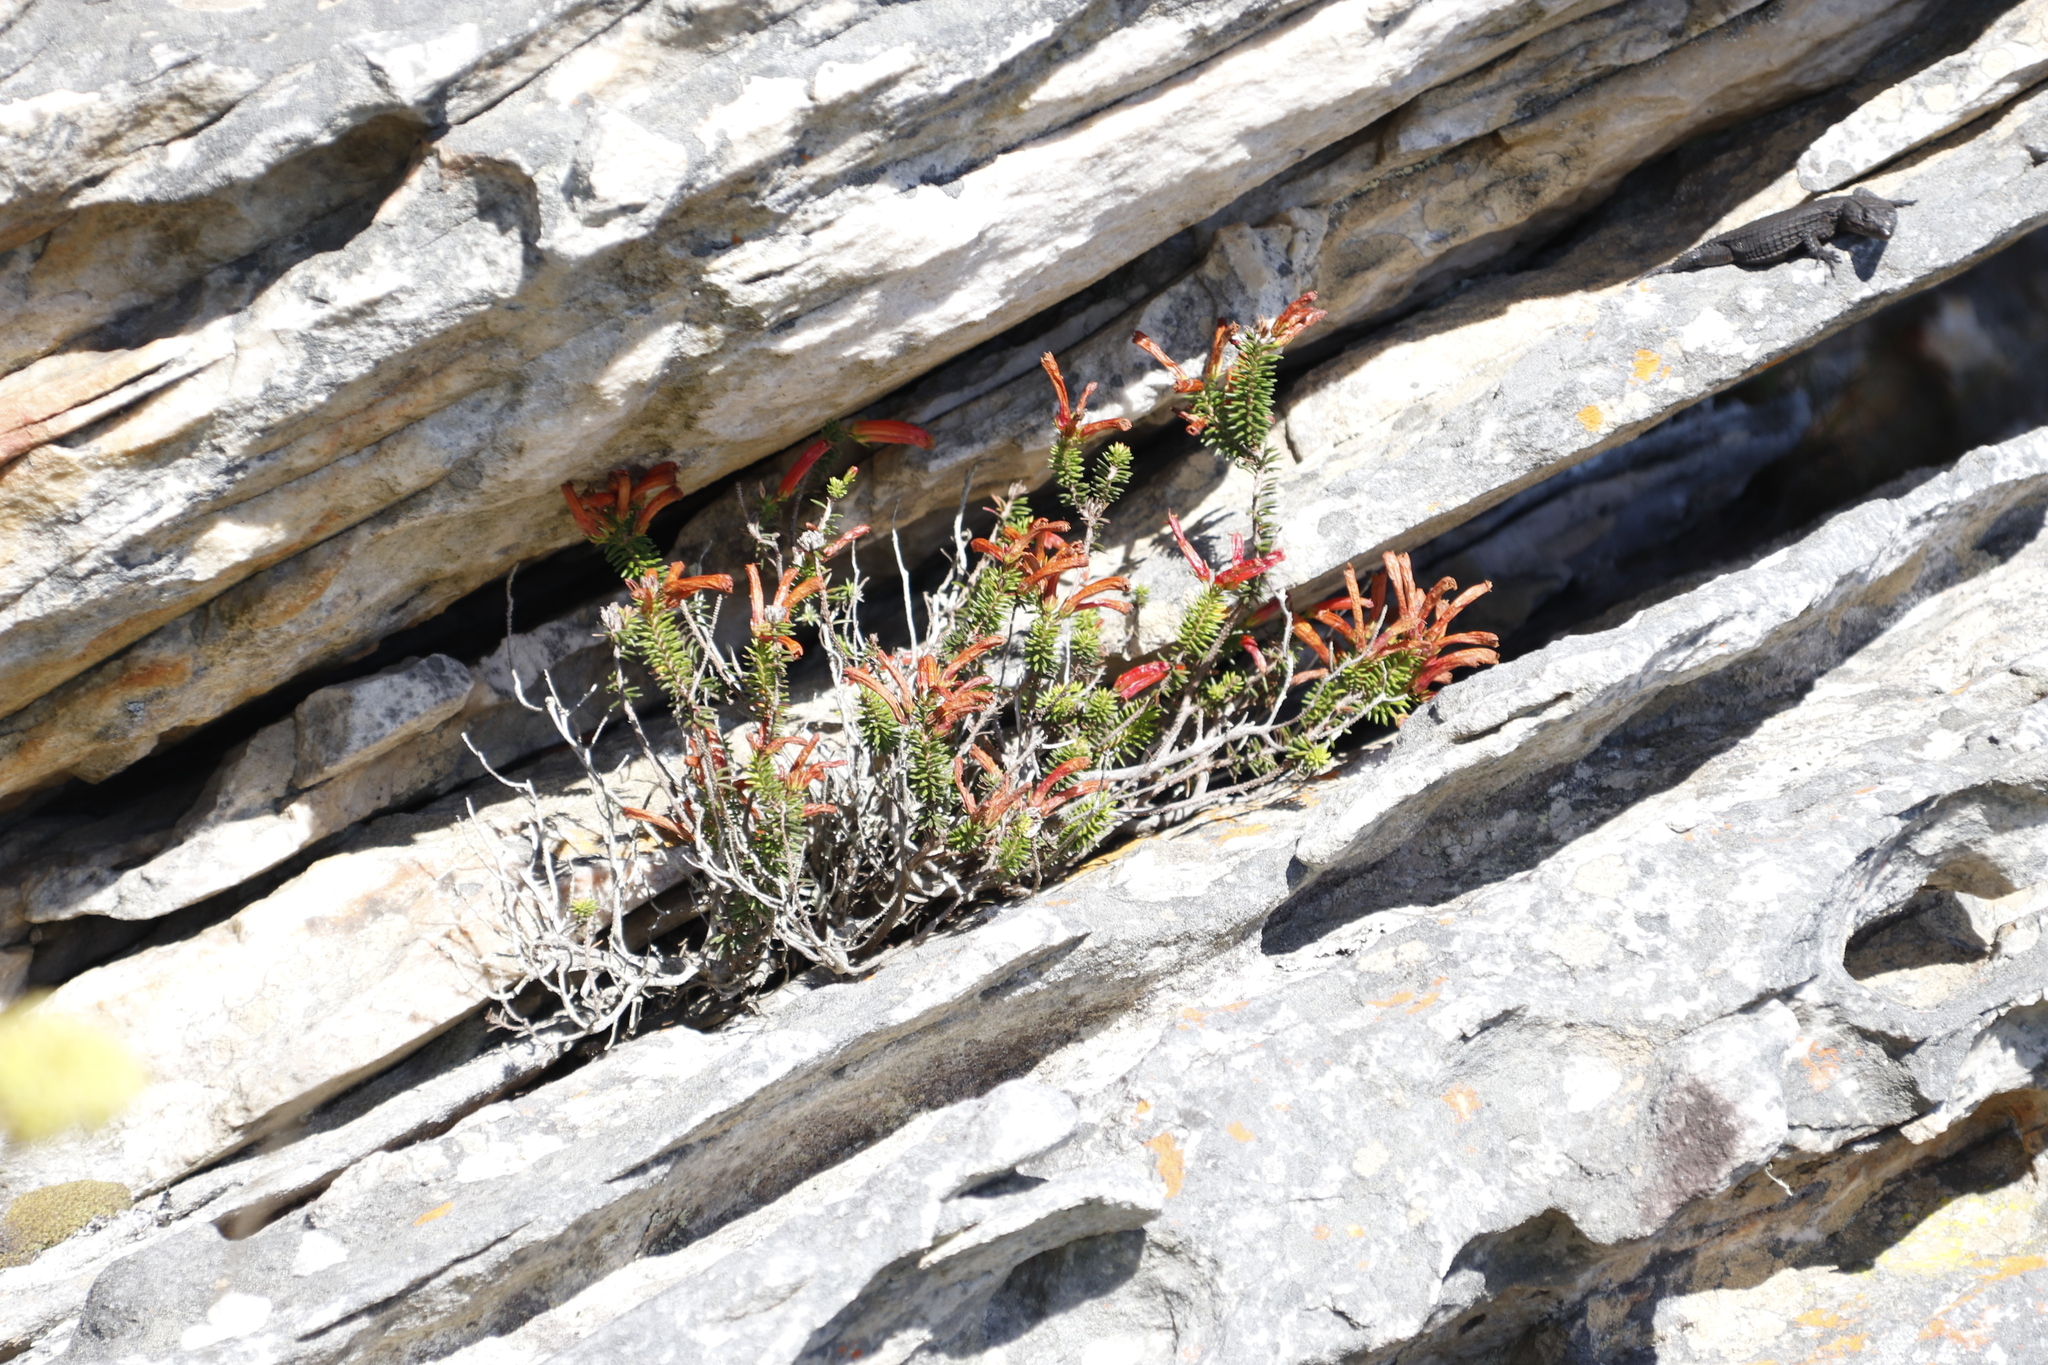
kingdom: Plantae
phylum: Tracheophyta
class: Magnoliopsida
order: Ericales
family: Ericaceae
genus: Erica
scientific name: Erica nevillei
